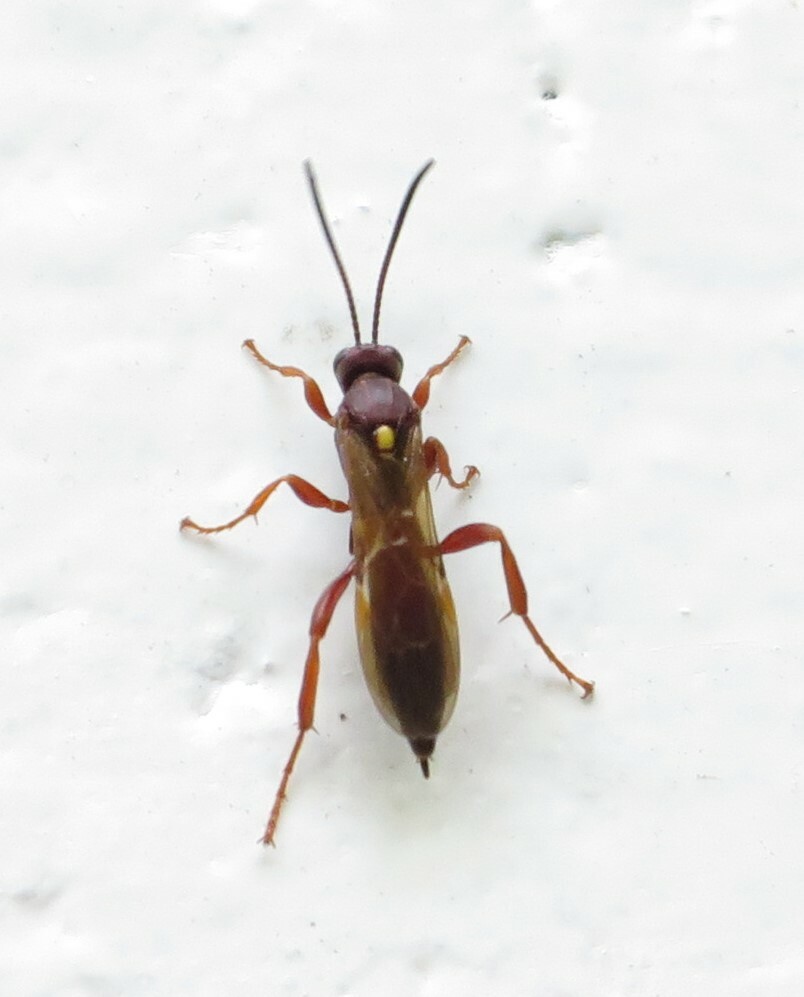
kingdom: Animalia
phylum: Arthropoda
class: Insecta
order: Hymenoptera
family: Ichneumonidae
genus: Aucklandella
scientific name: Aucklandella minuta
